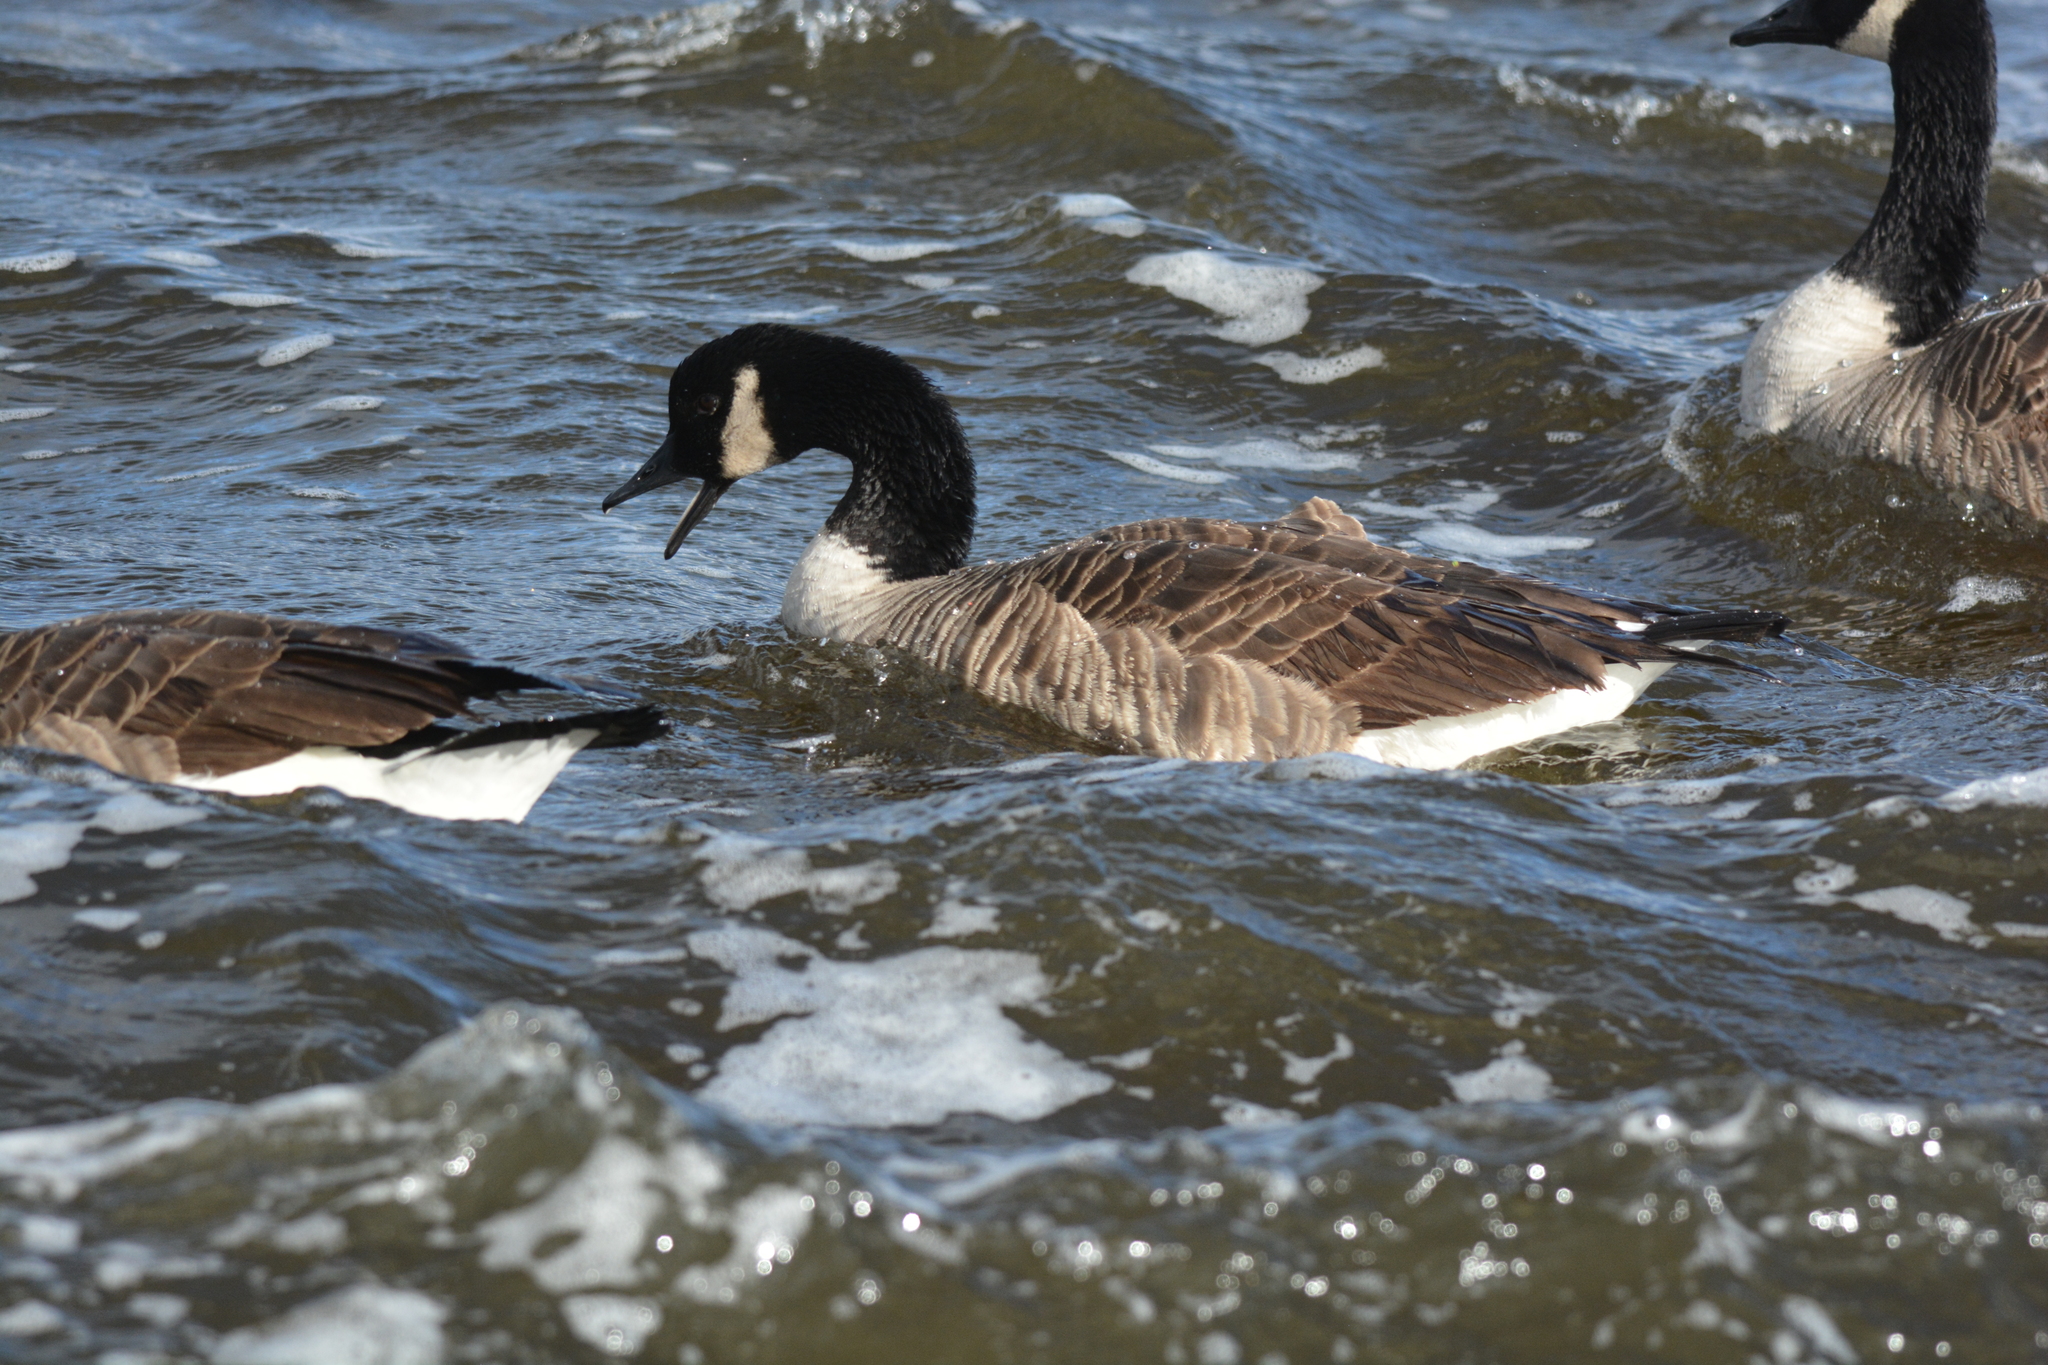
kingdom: Animalia
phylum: Chordata
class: Aves
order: Anseriformes
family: Anatidae
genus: Branta
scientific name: Branta canadensis
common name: Canada goose
